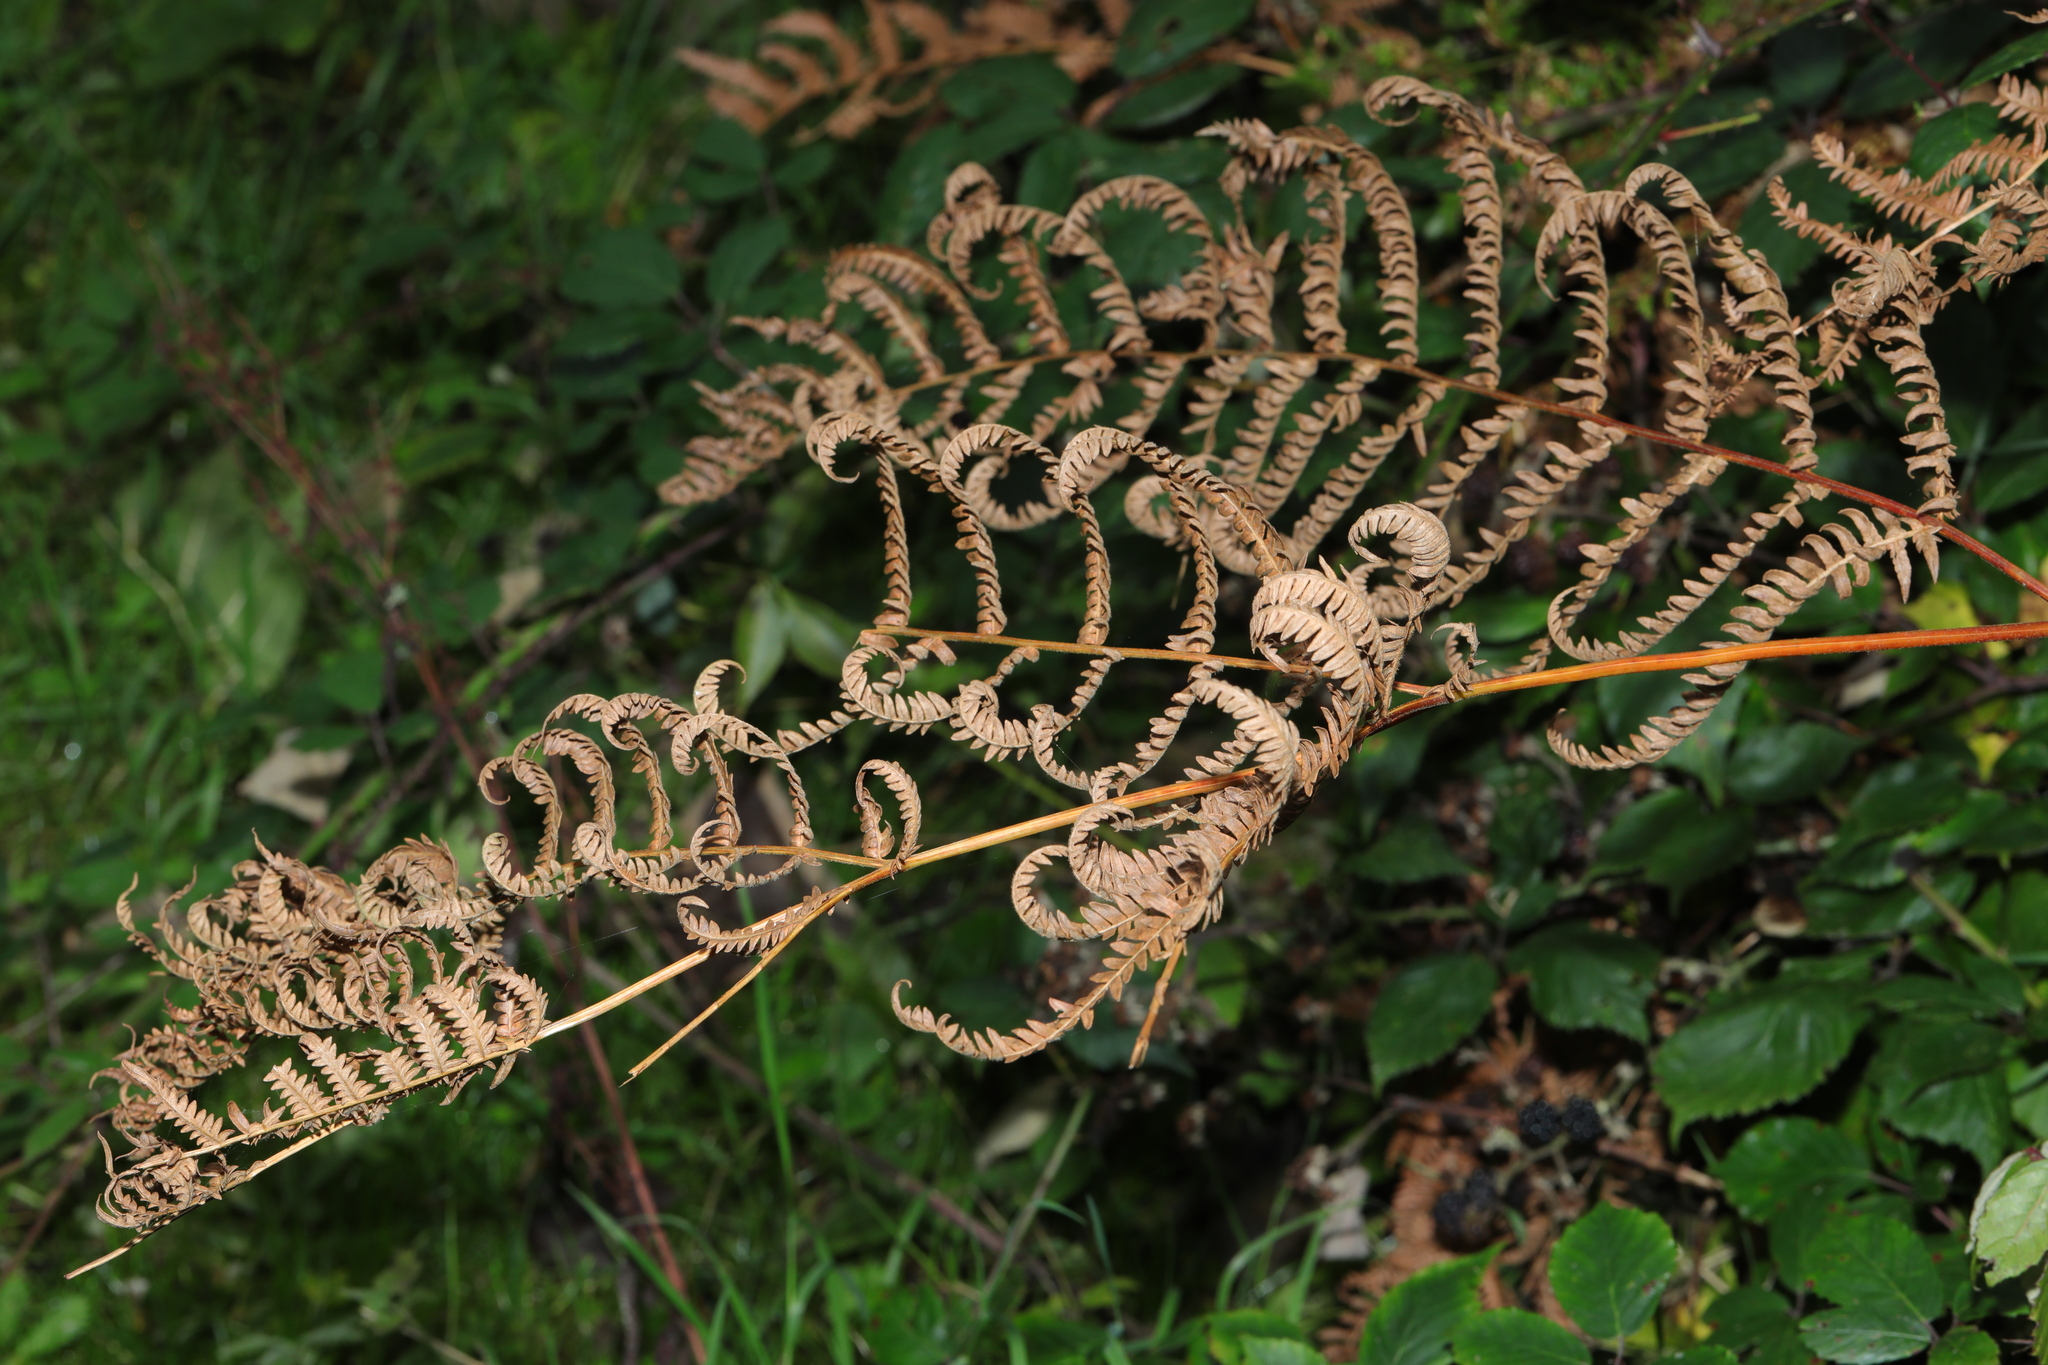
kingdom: Plantae
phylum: Tracheophyta
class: Polypodiopsida
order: Polypodiales
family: Dennstaedtiaceae
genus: Pteridium
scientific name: Pteridium aquilinum
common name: Bracken
